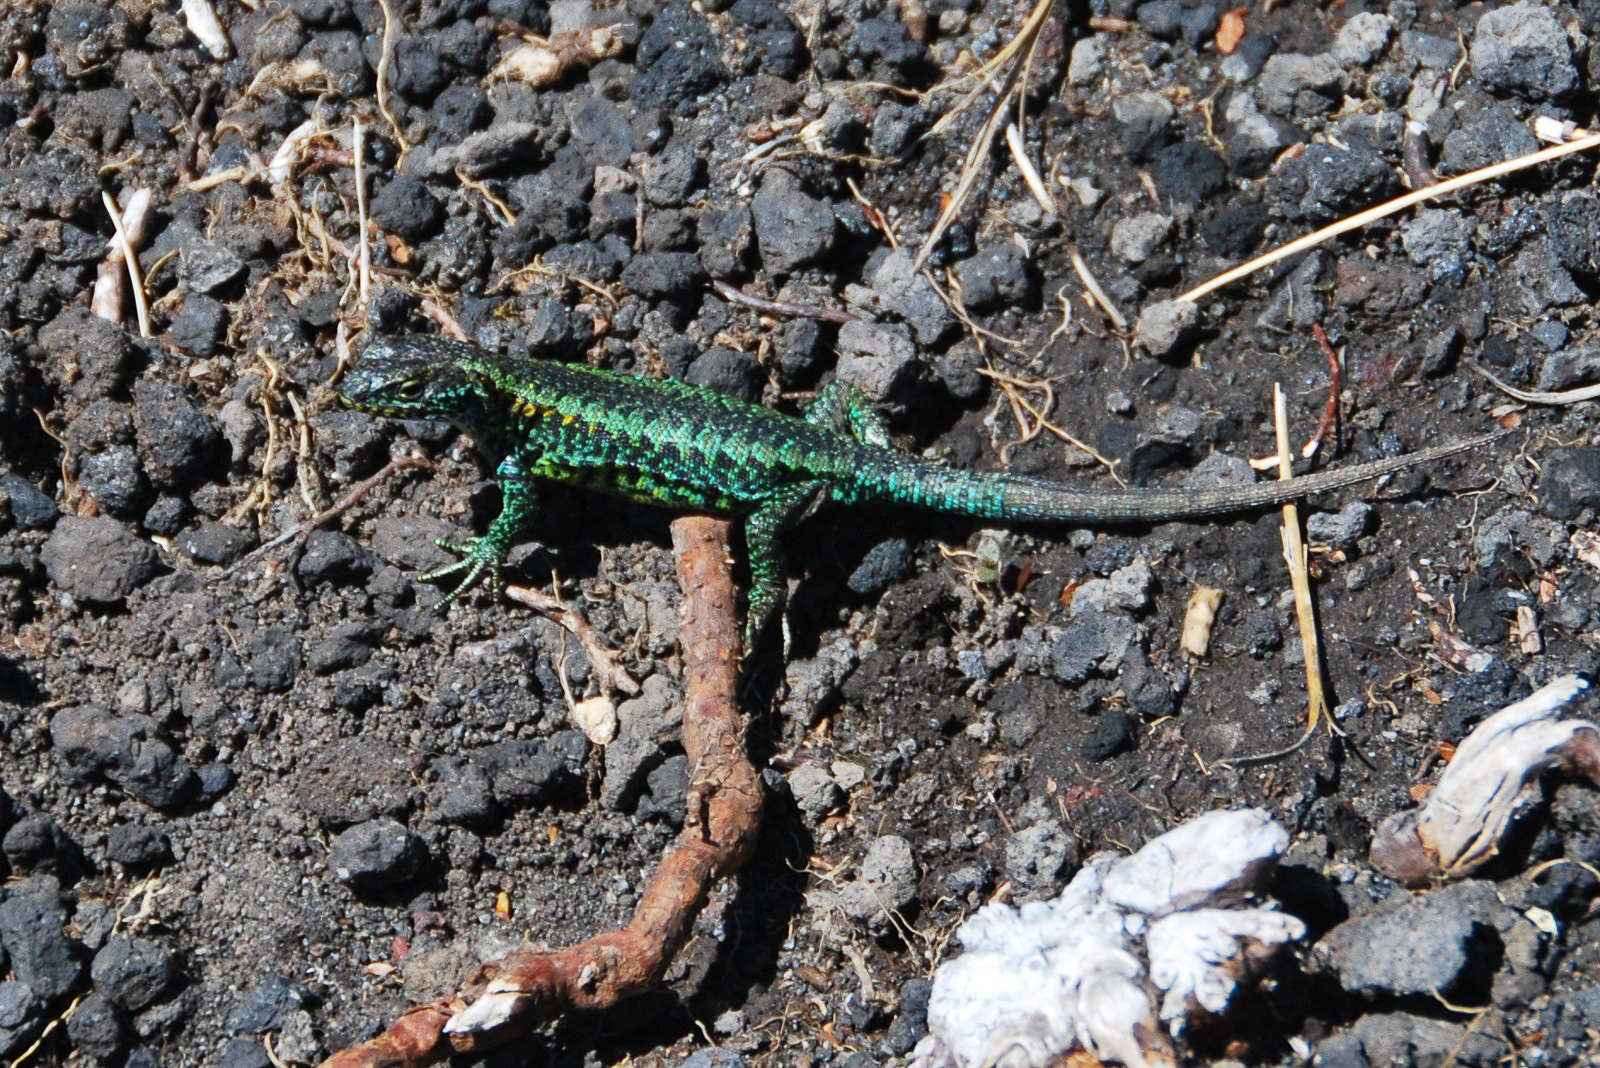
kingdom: Animalia
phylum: Chordata
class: Squamata
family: Liolaemidae
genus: Liolaemus
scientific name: Liolaemus pictus
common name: Painted tree iguana
